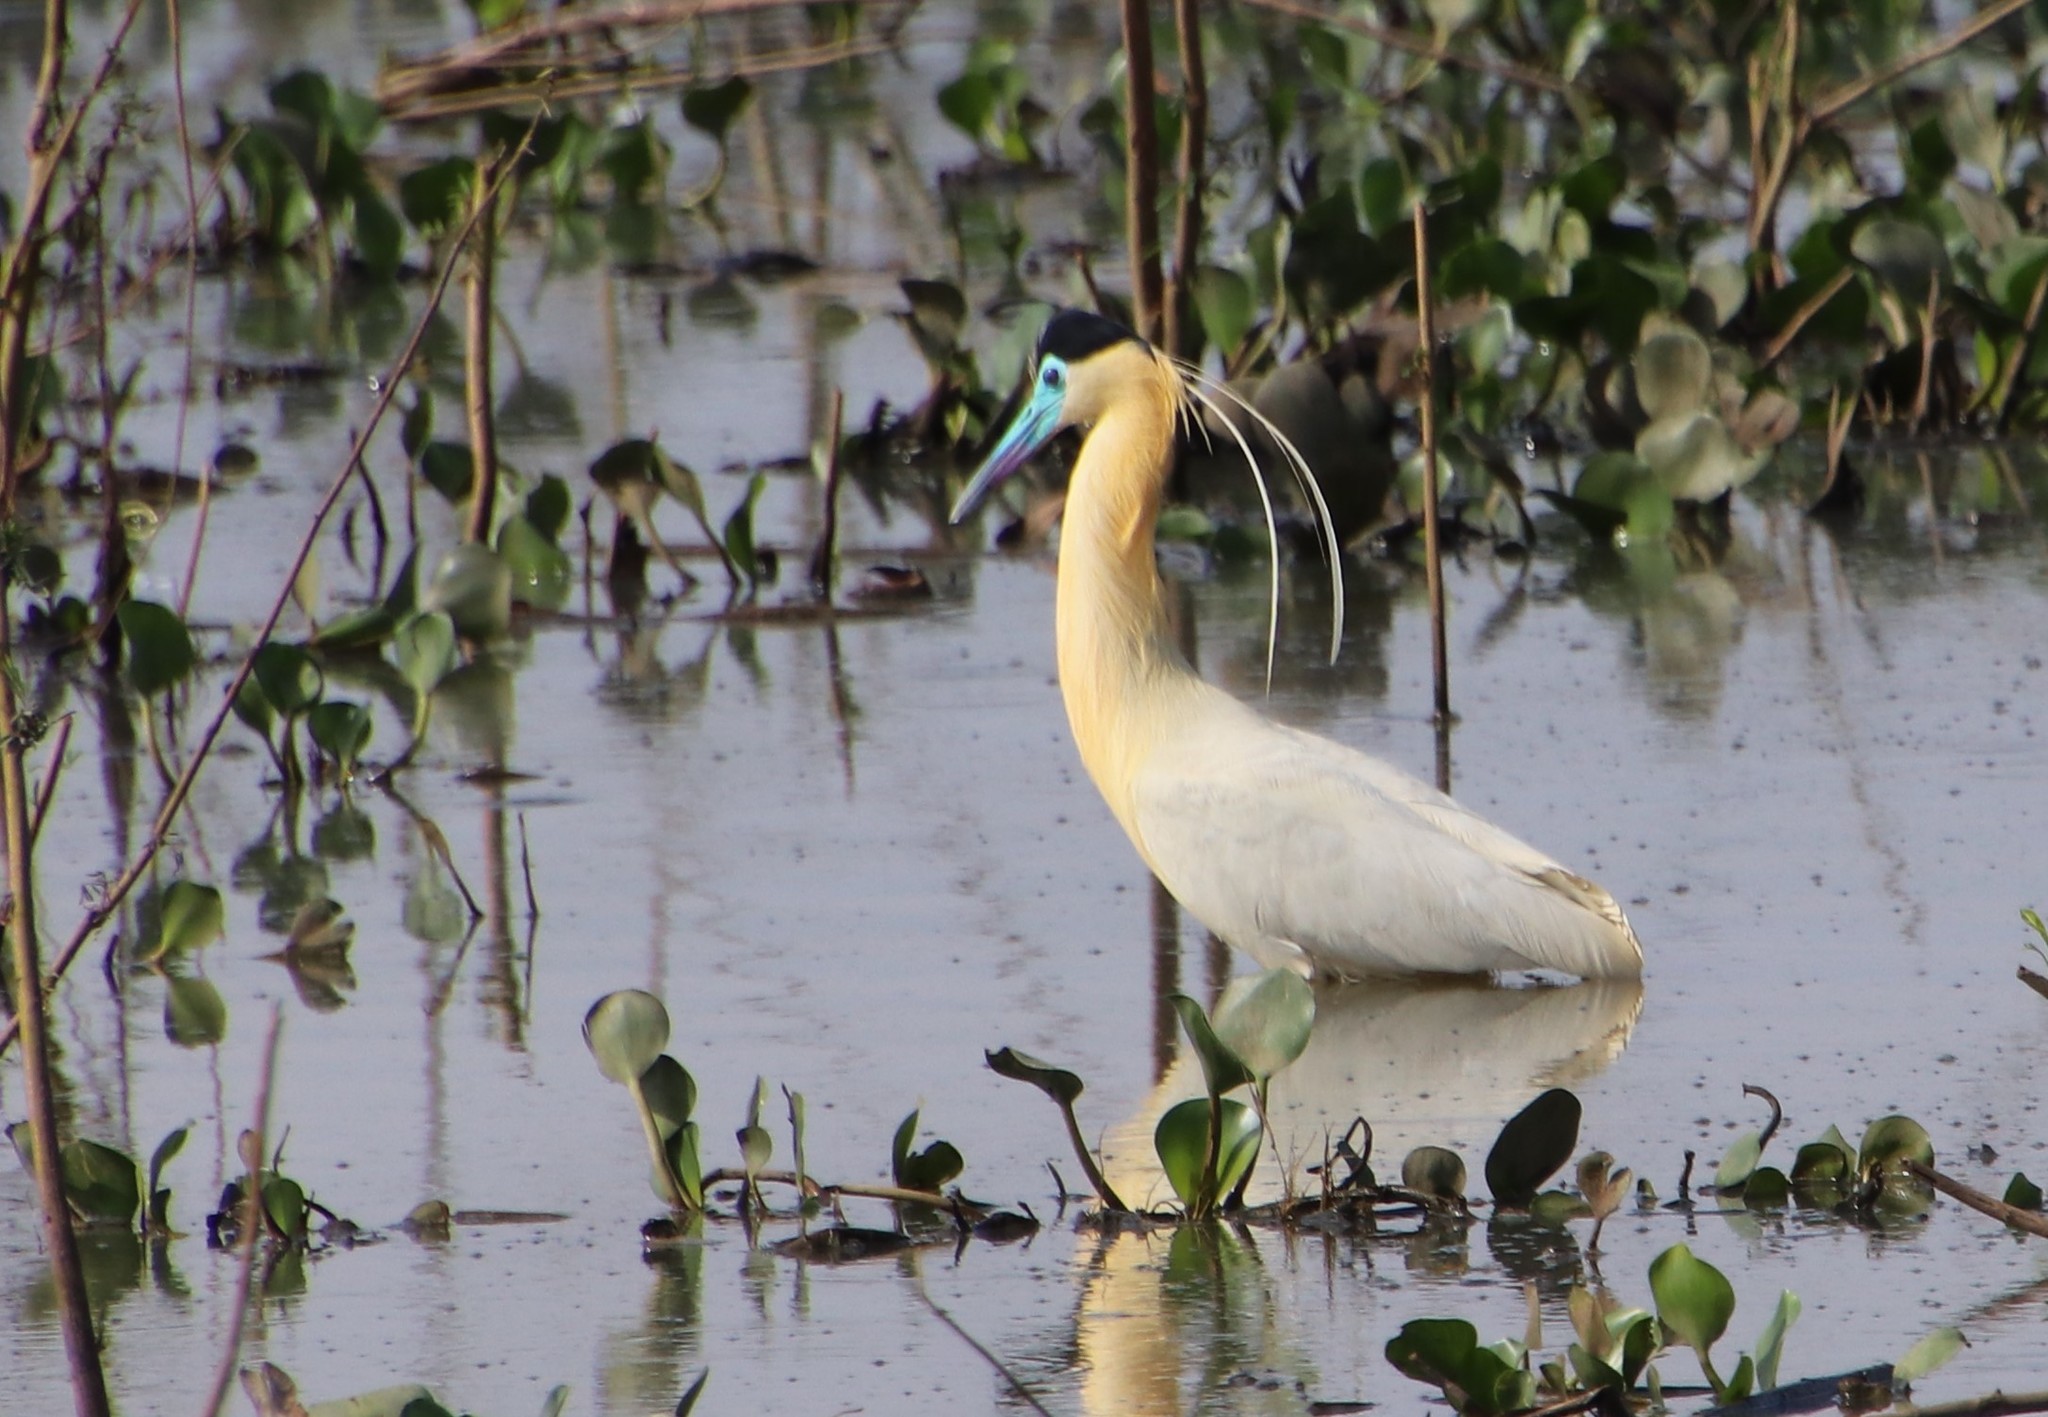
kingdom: Animalia
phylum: Chordata
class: Aves
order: Pelecaniformes
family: Ardeidae
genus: Pilherodius
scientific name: Pilherodius pileatus
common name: Capped heron
